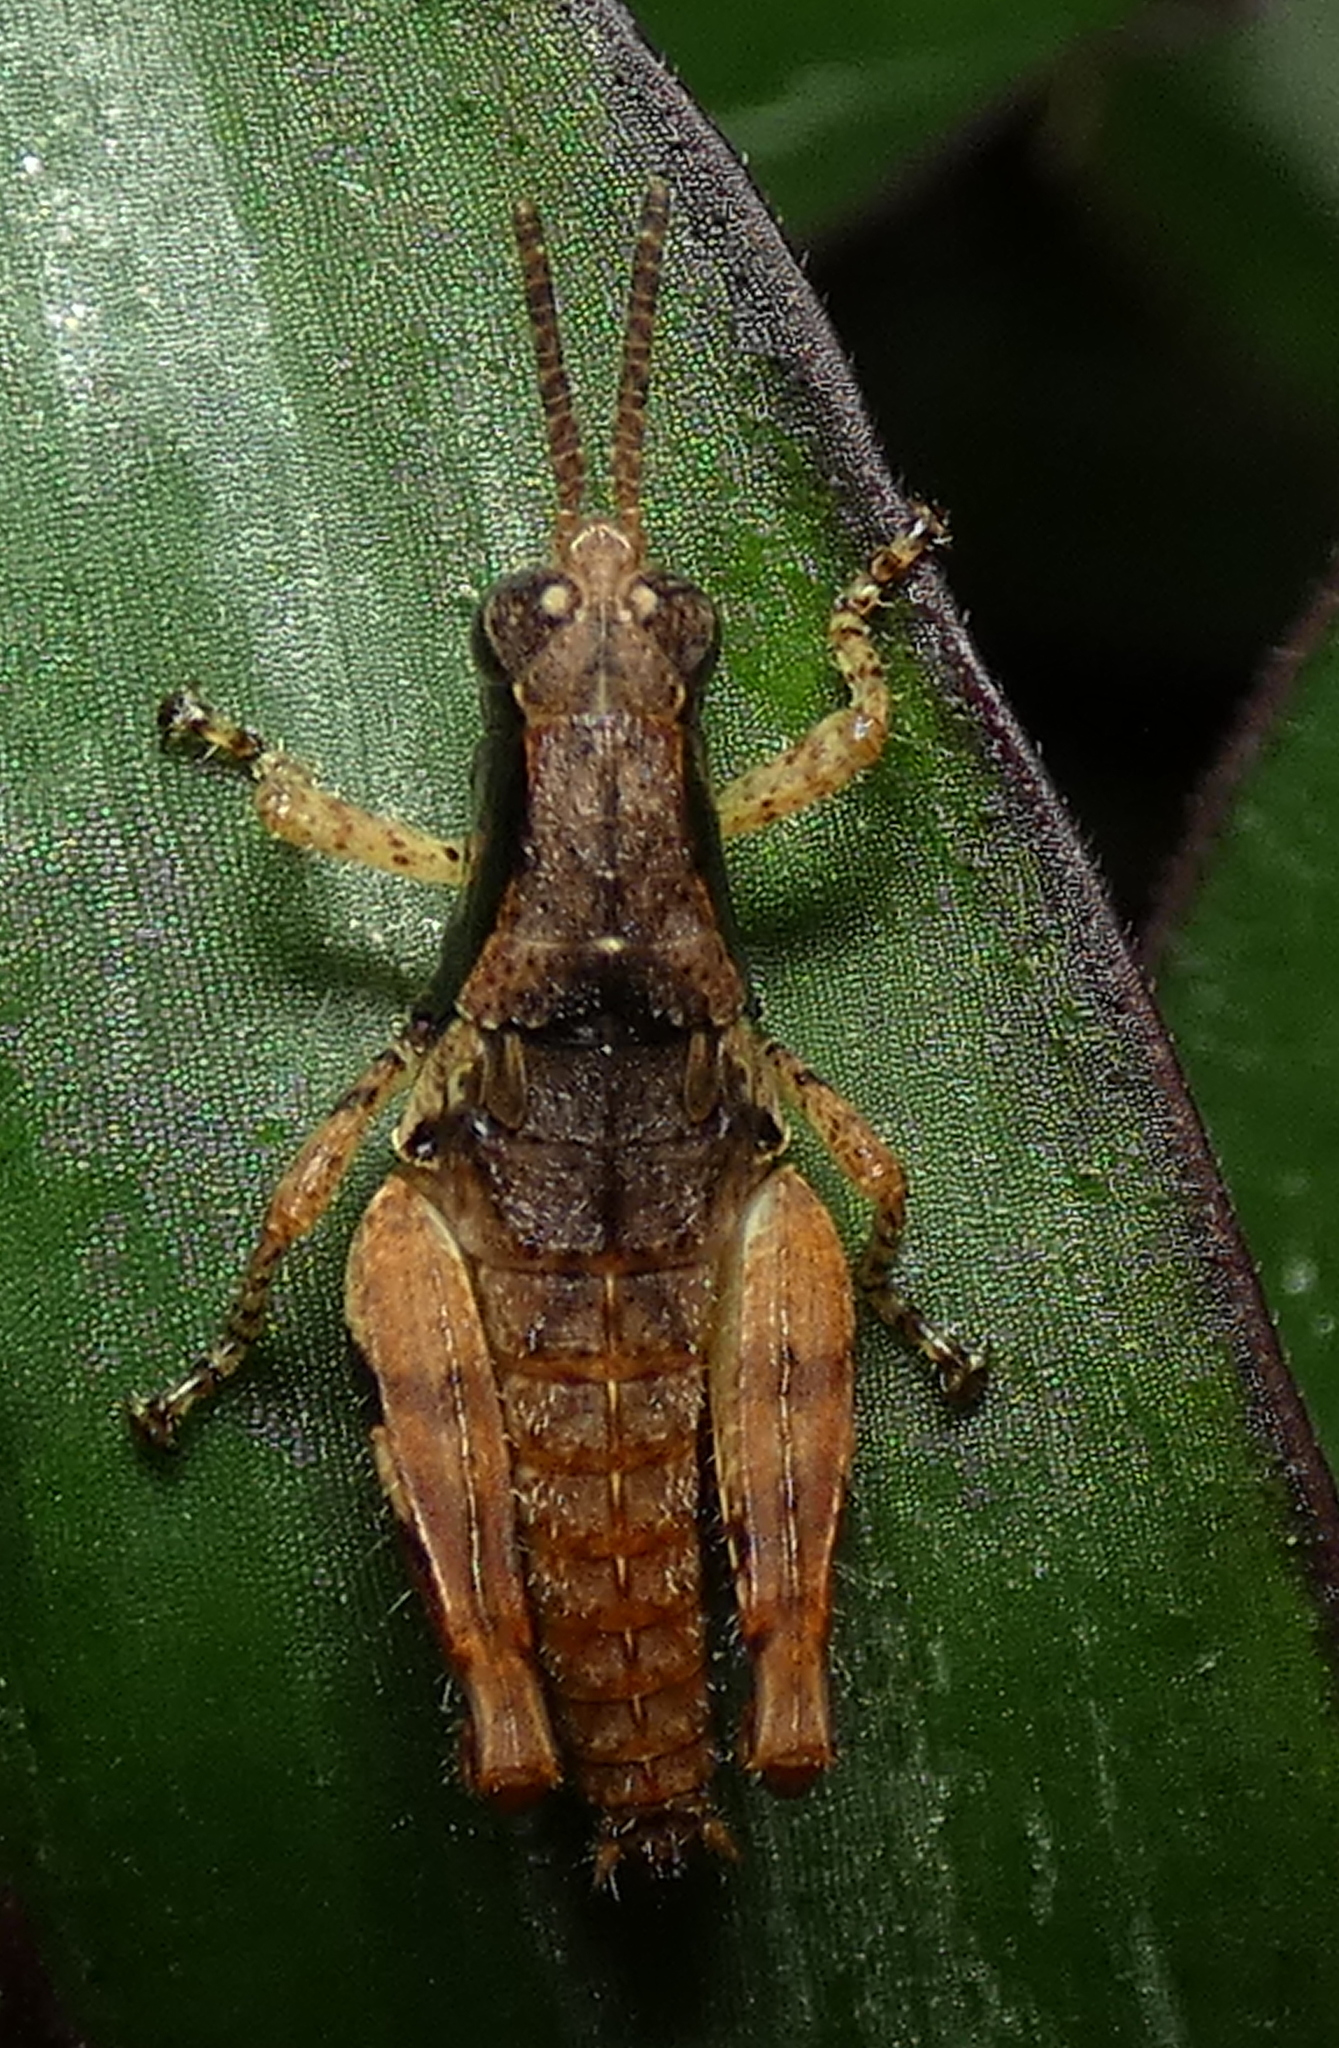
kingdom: Animalia
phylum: Arthropoda
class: Insecta
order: Orthoptera
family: Acrididae
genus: Eujivarus
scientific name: Eujivarus meridionalis
